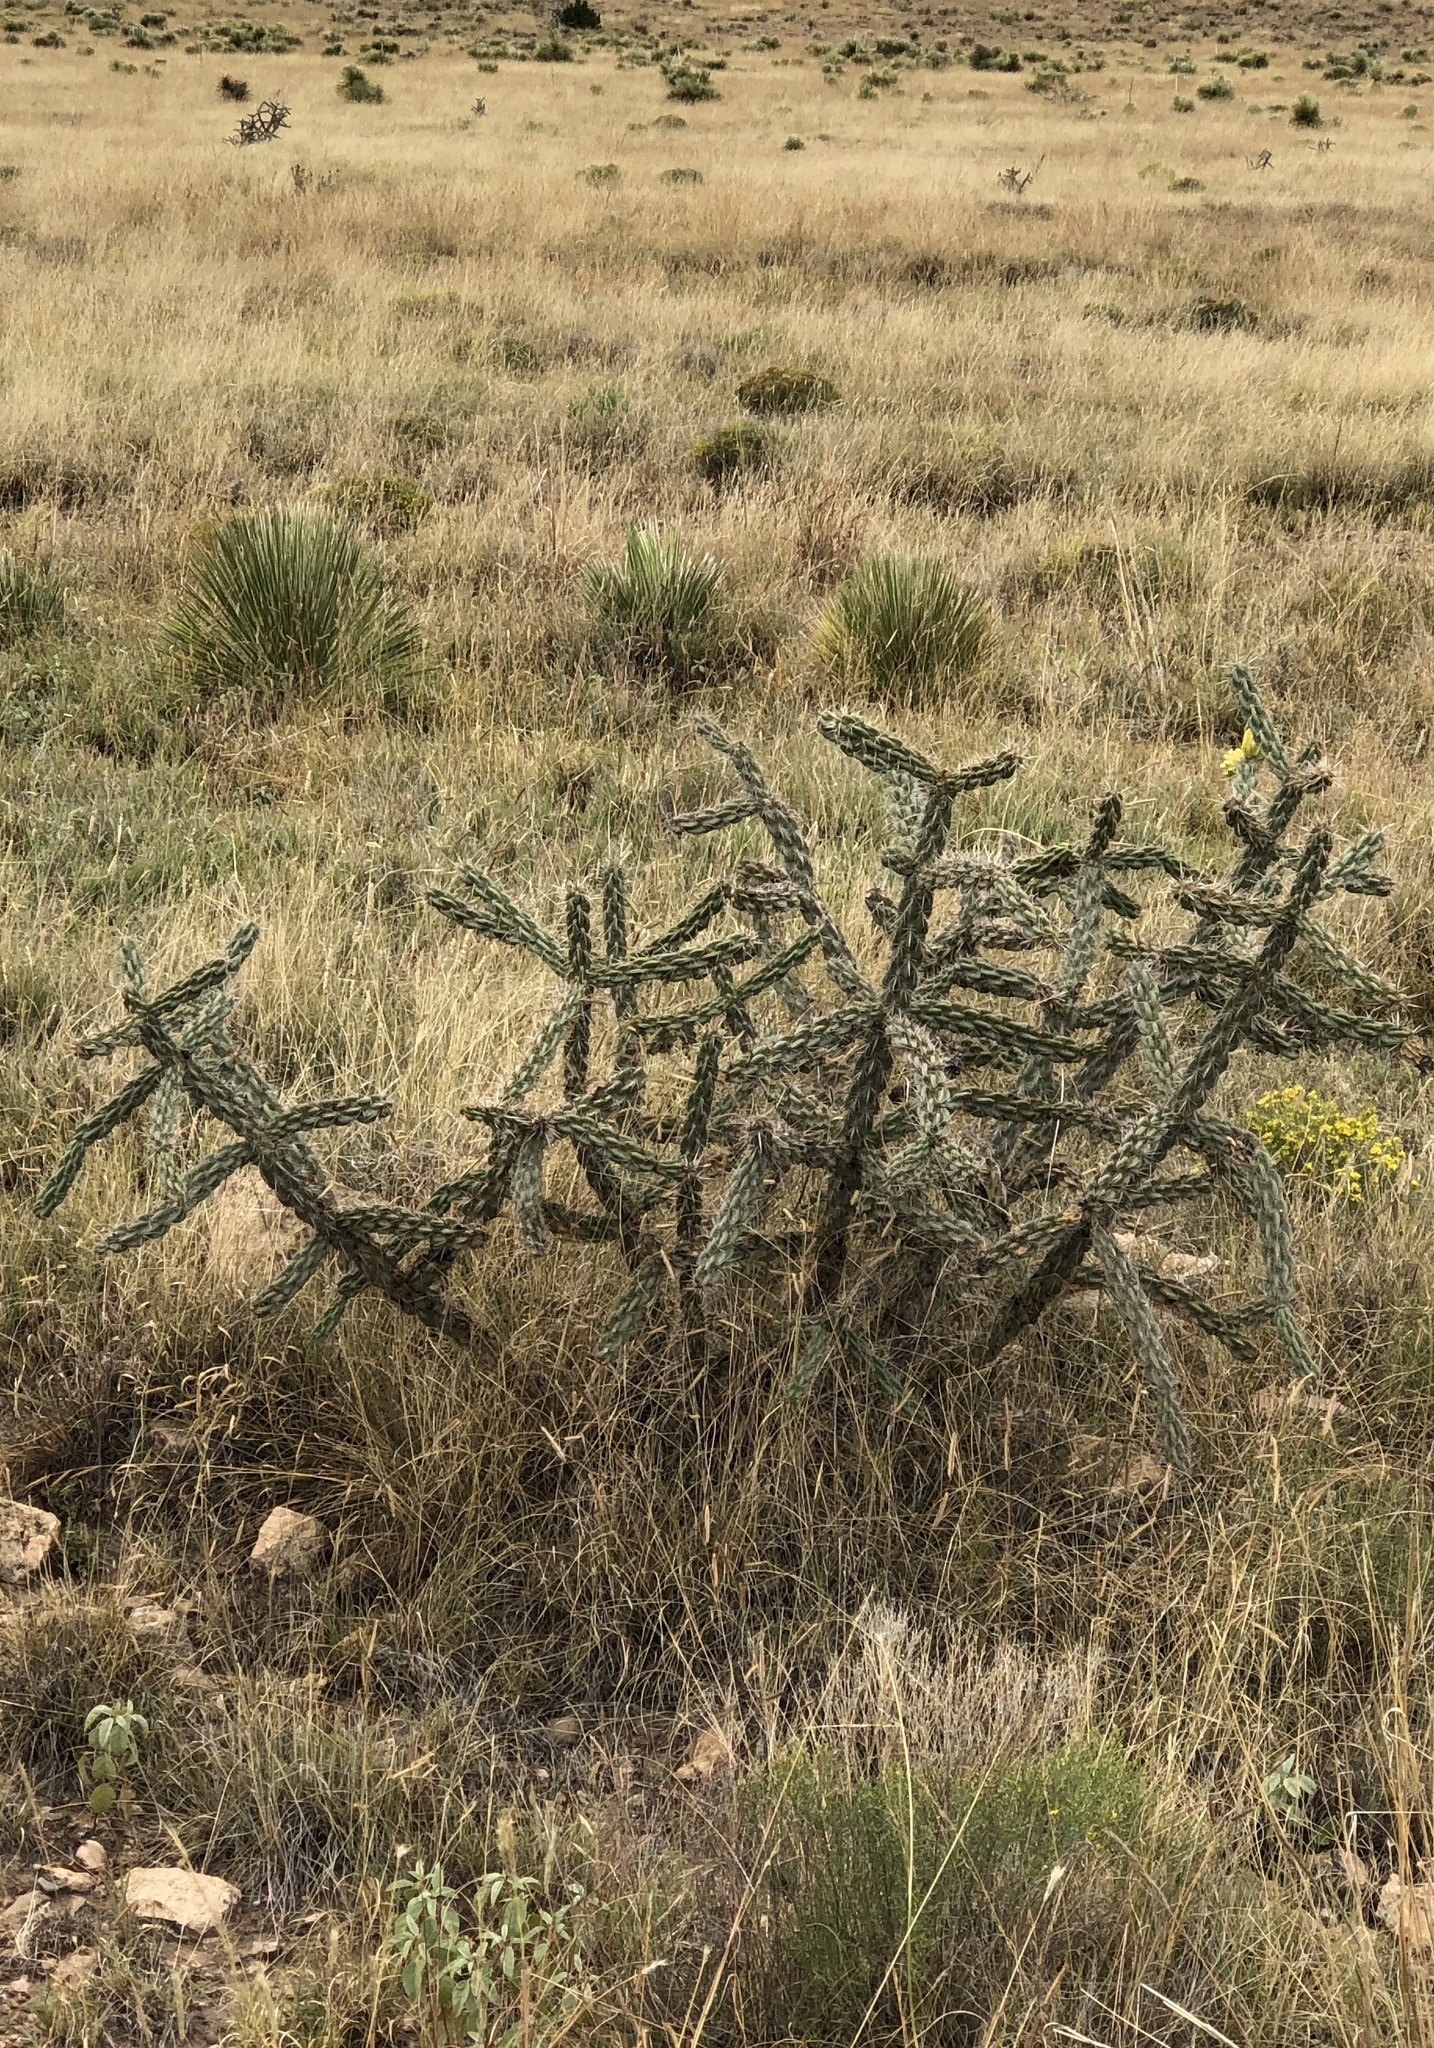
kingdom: Plantae
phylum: Tracheophyta
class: Magnoliopsida
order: Caryophyllales
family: Cactaceae
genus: Cylindropuntia
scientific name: Cylindropuntia imbricata
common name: Candelabrum cactus
